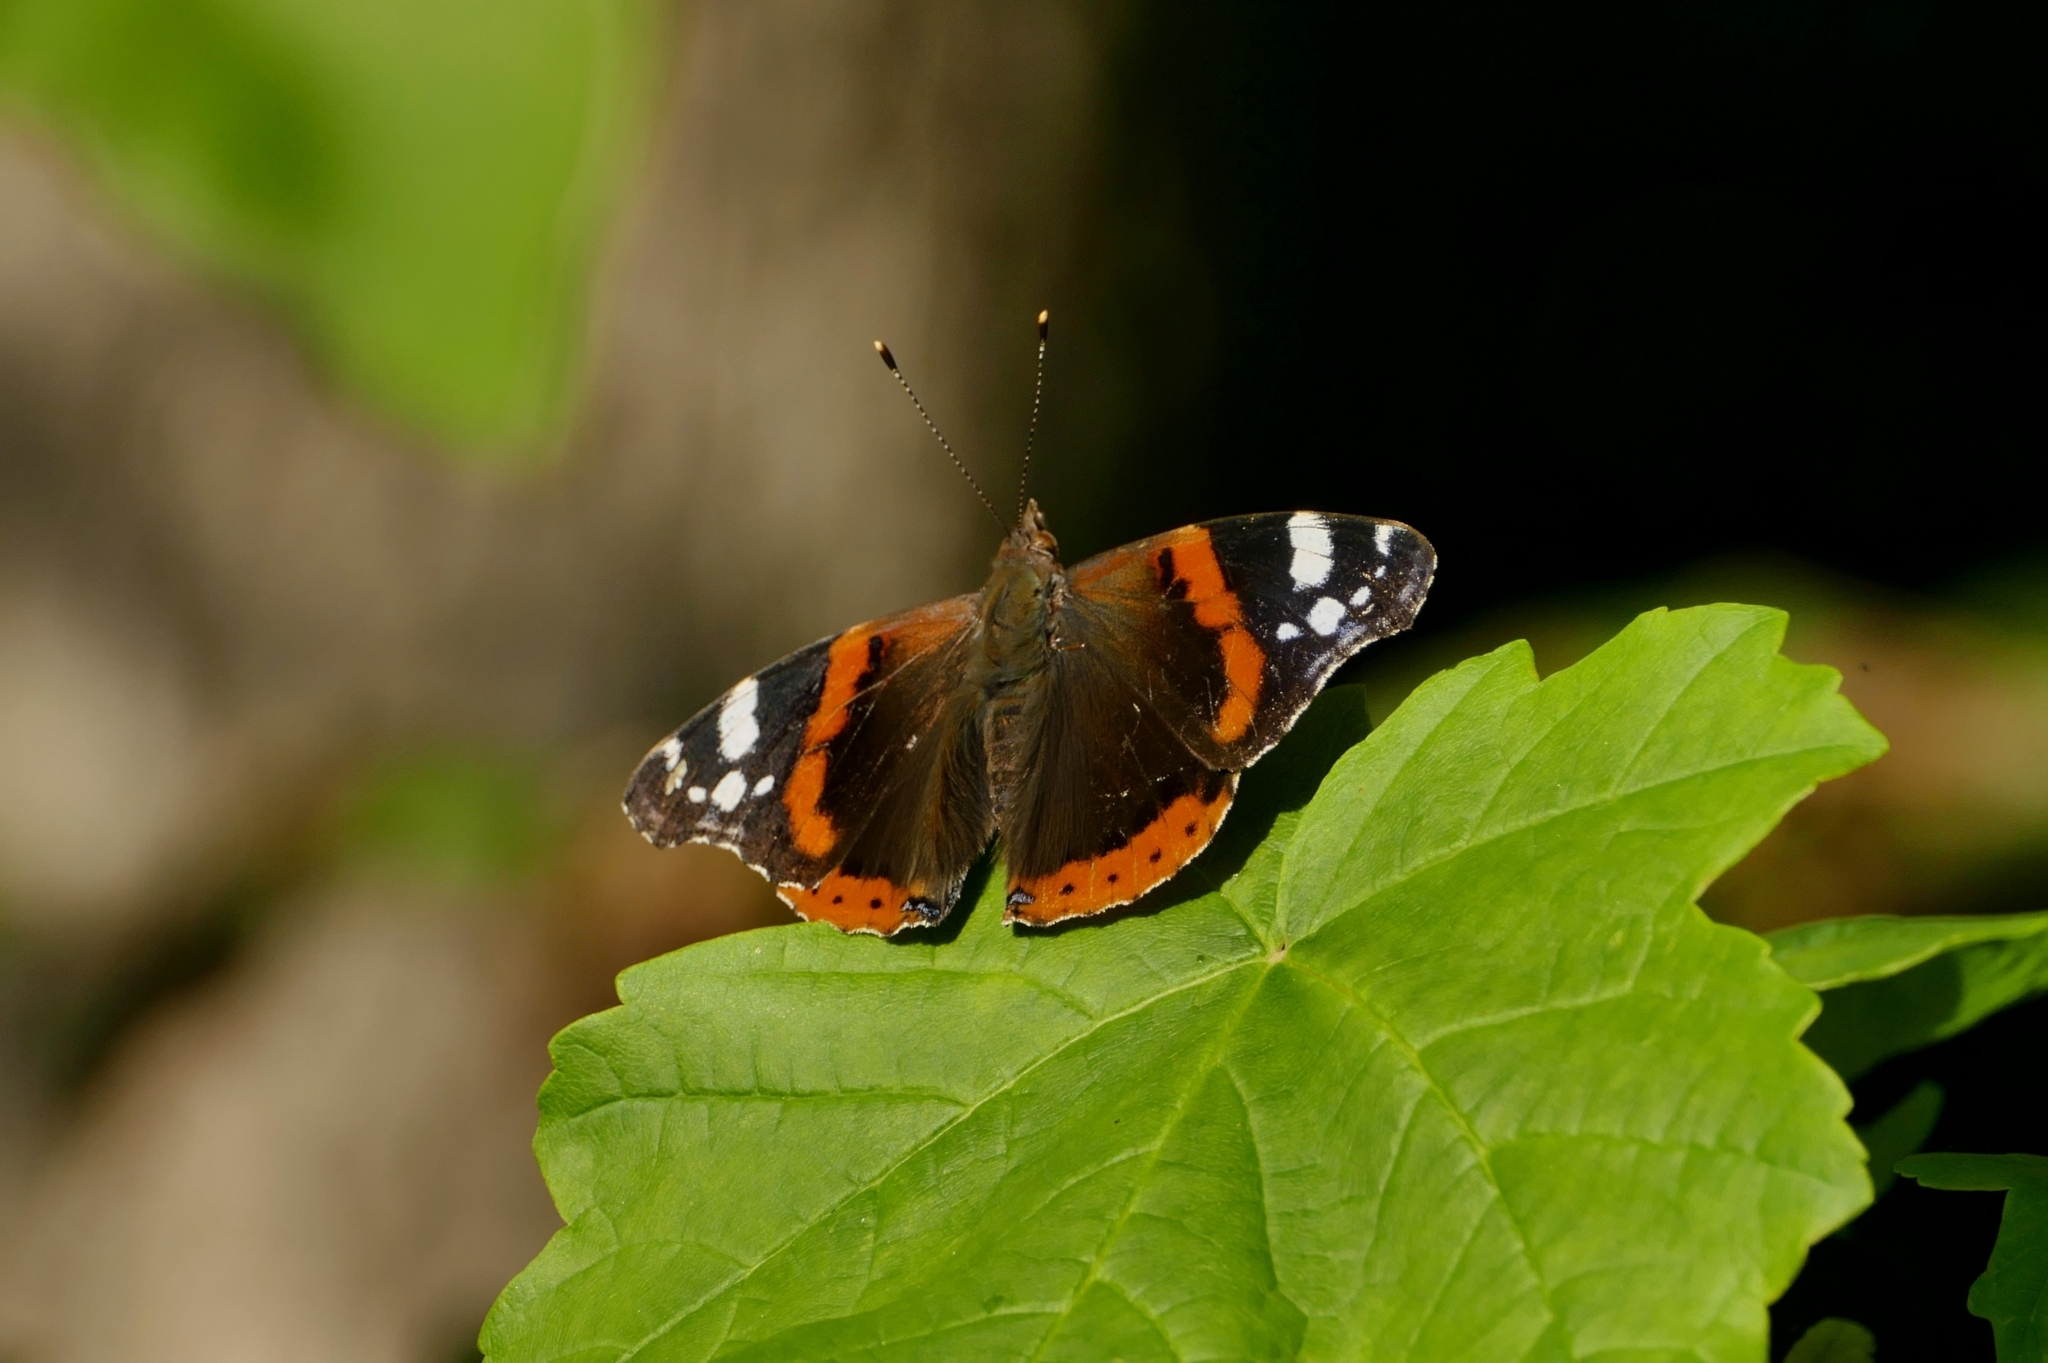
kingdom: Animalia
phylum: Arthropoda
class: Insecta
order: Lepidoptera
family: Nymphalidae
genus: Vanessa
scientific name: Vanessa atalanta
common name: Red admiral
